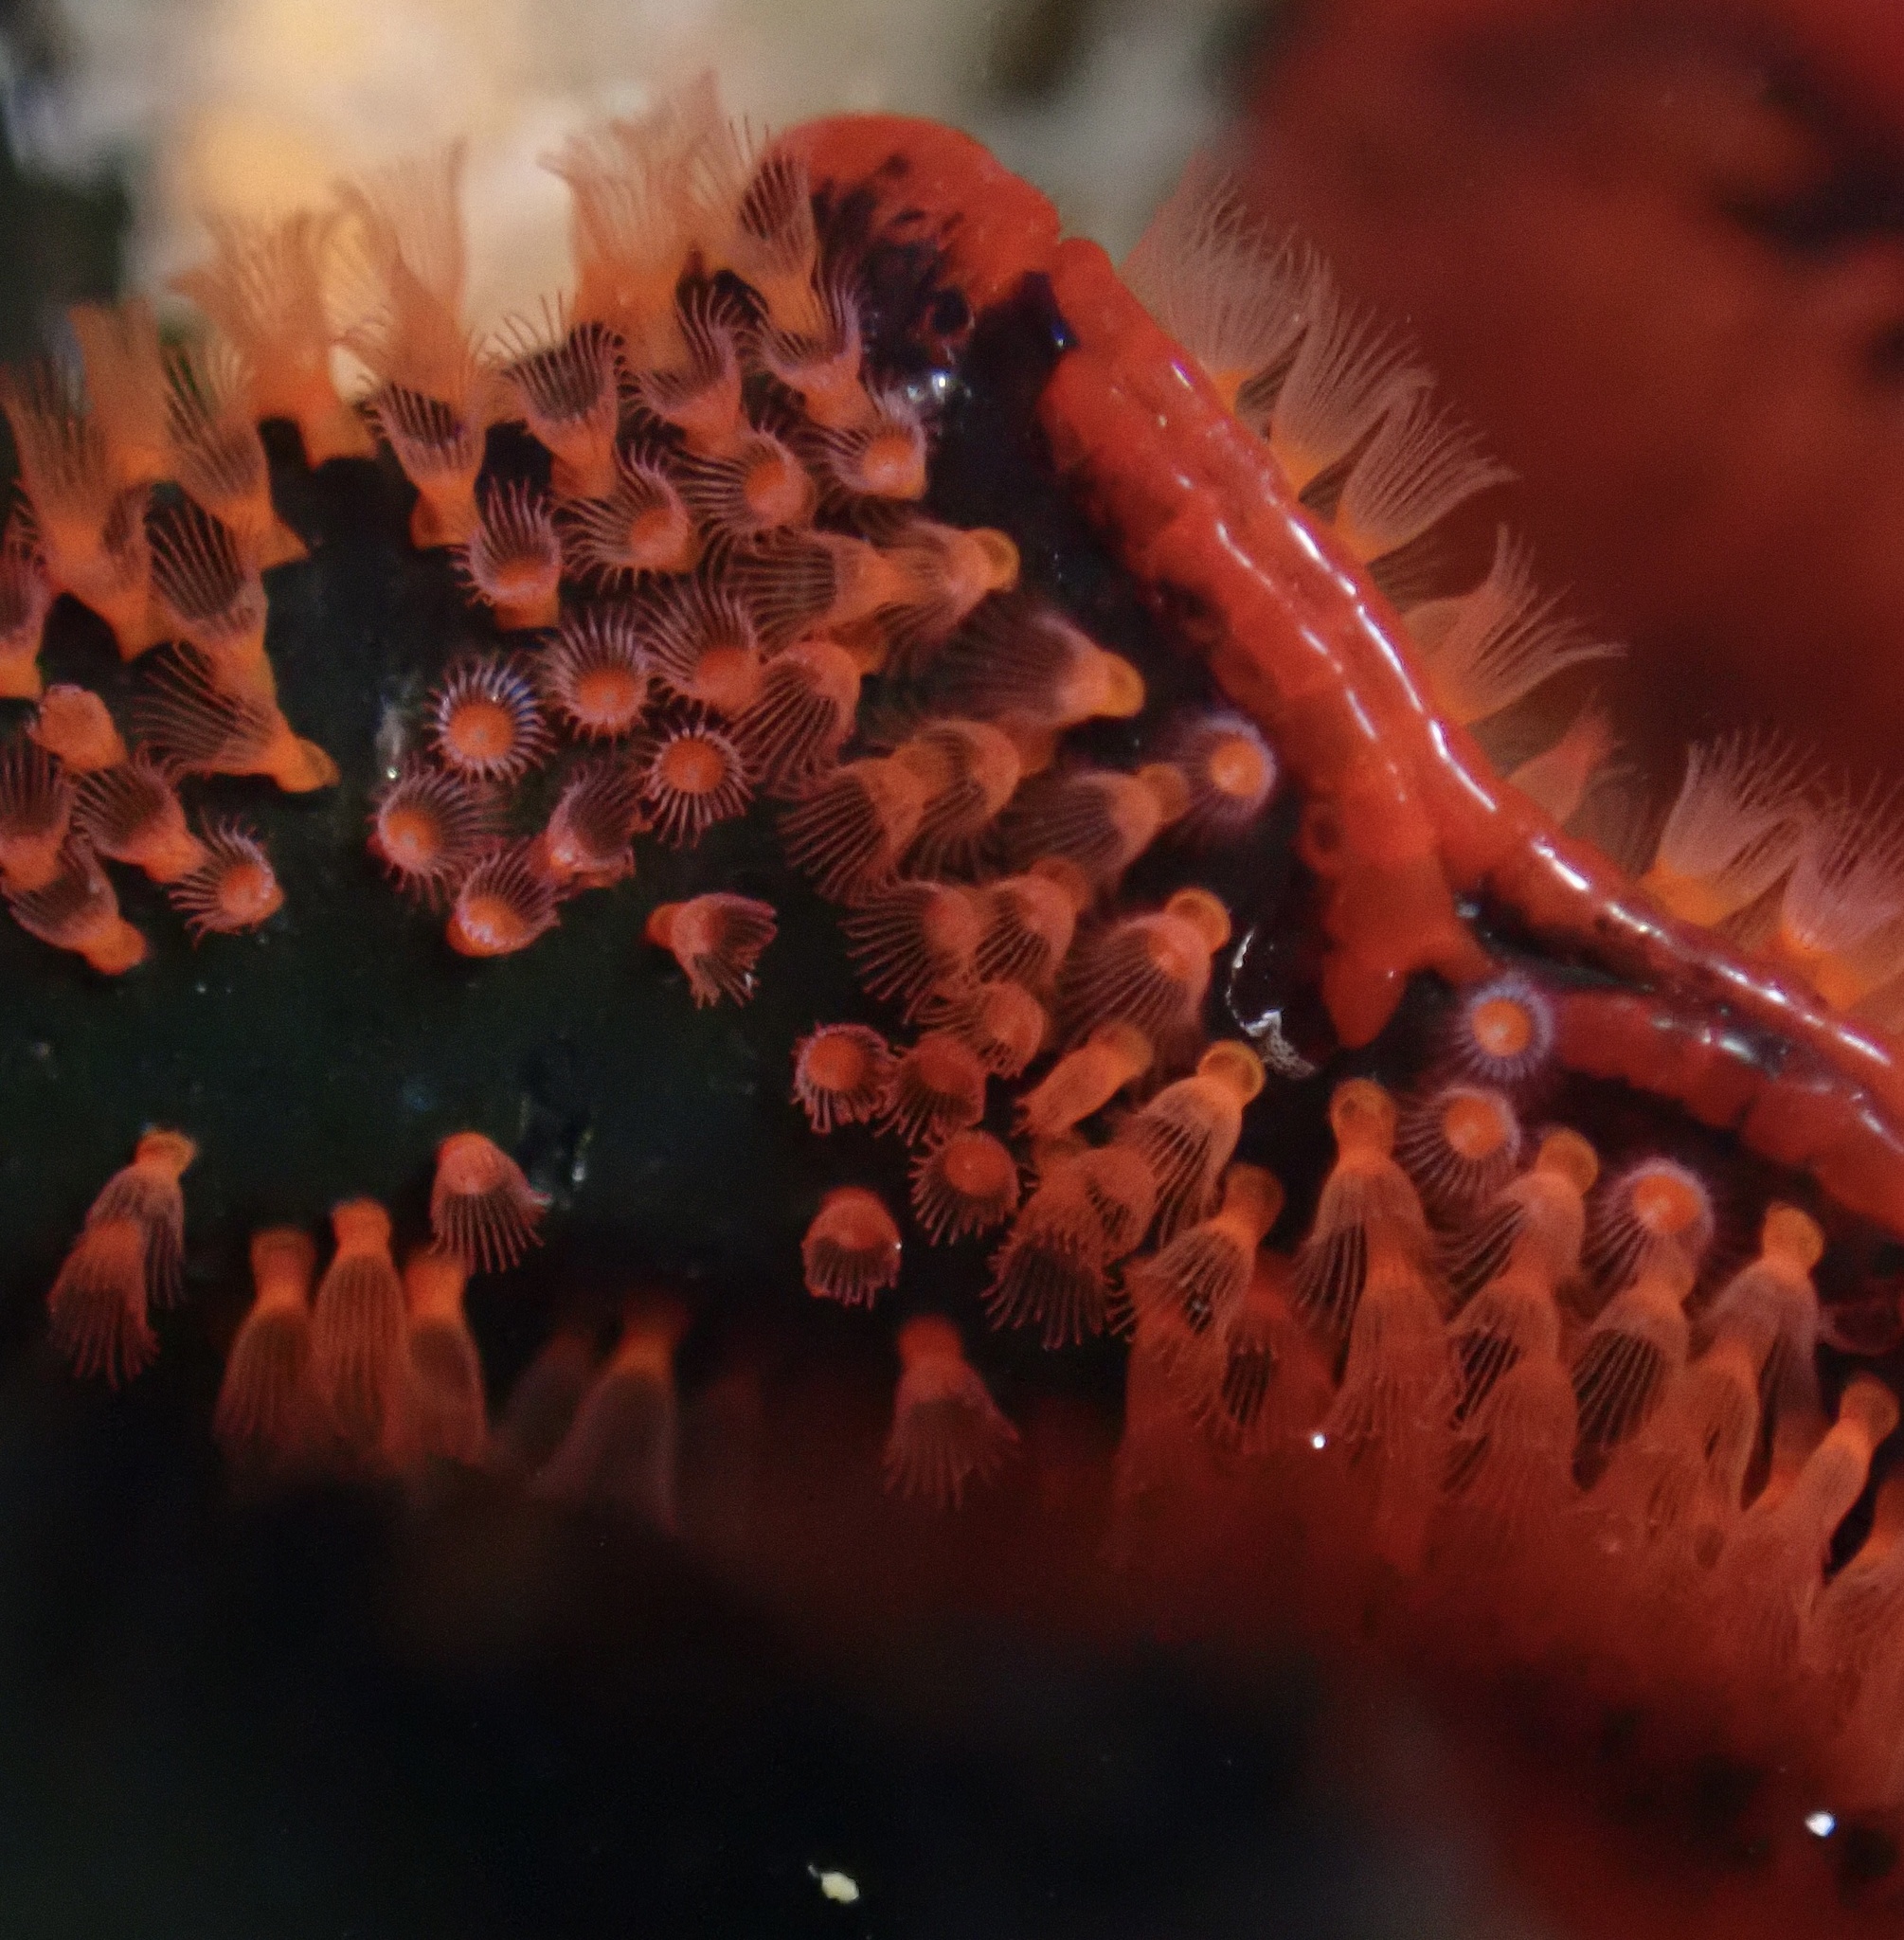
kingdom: Animalia
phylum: Bryozoa
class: Gymnolaemata
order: Cheilostomatida
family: Watersiporidae
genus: Watersipora
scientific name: Watersipora subtorquata
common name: Bryozoan
